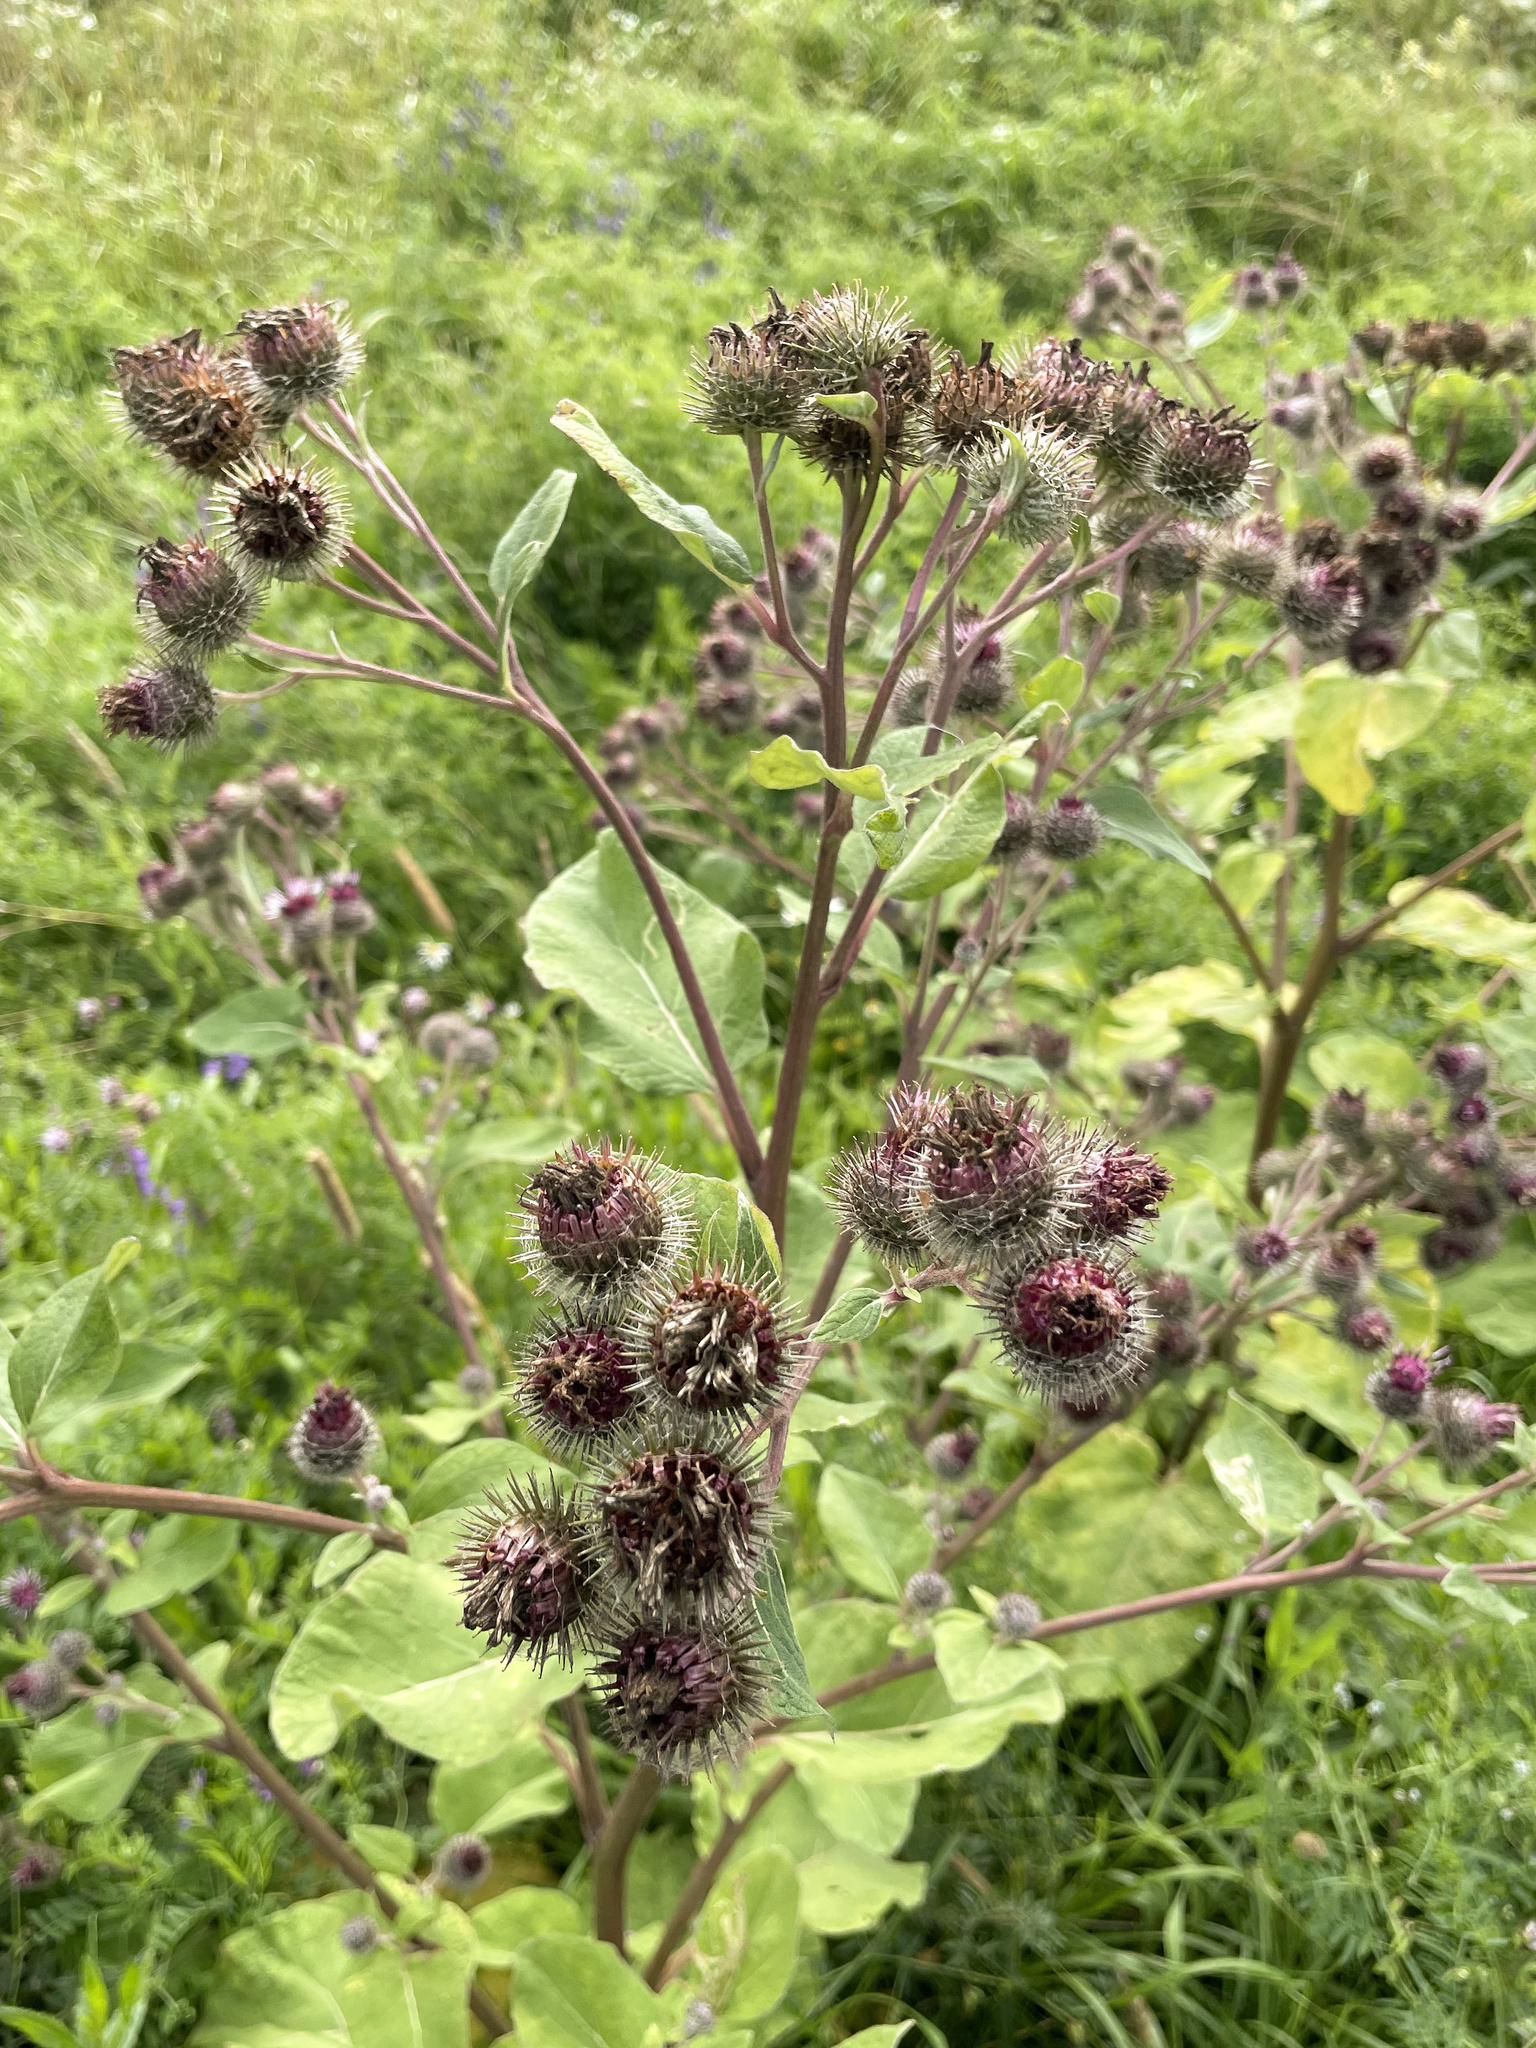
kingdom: Plantae
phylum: Tracheophyta
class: Magnoliopsida
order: Asterales
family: Asteraceae
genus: Arctium
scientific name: Arctium tomentosum
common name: Woolly burdock
